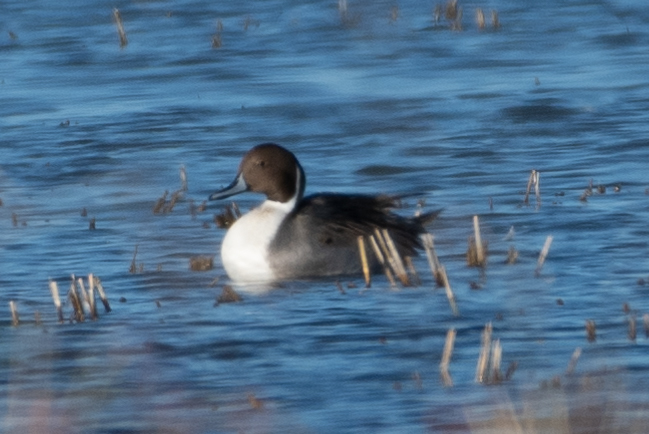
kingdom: Animalia
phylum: Chordata
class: Aves
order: Anseriformes
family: Anatidae
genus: Anas
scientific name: Anas acuta
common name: Northern pintail
